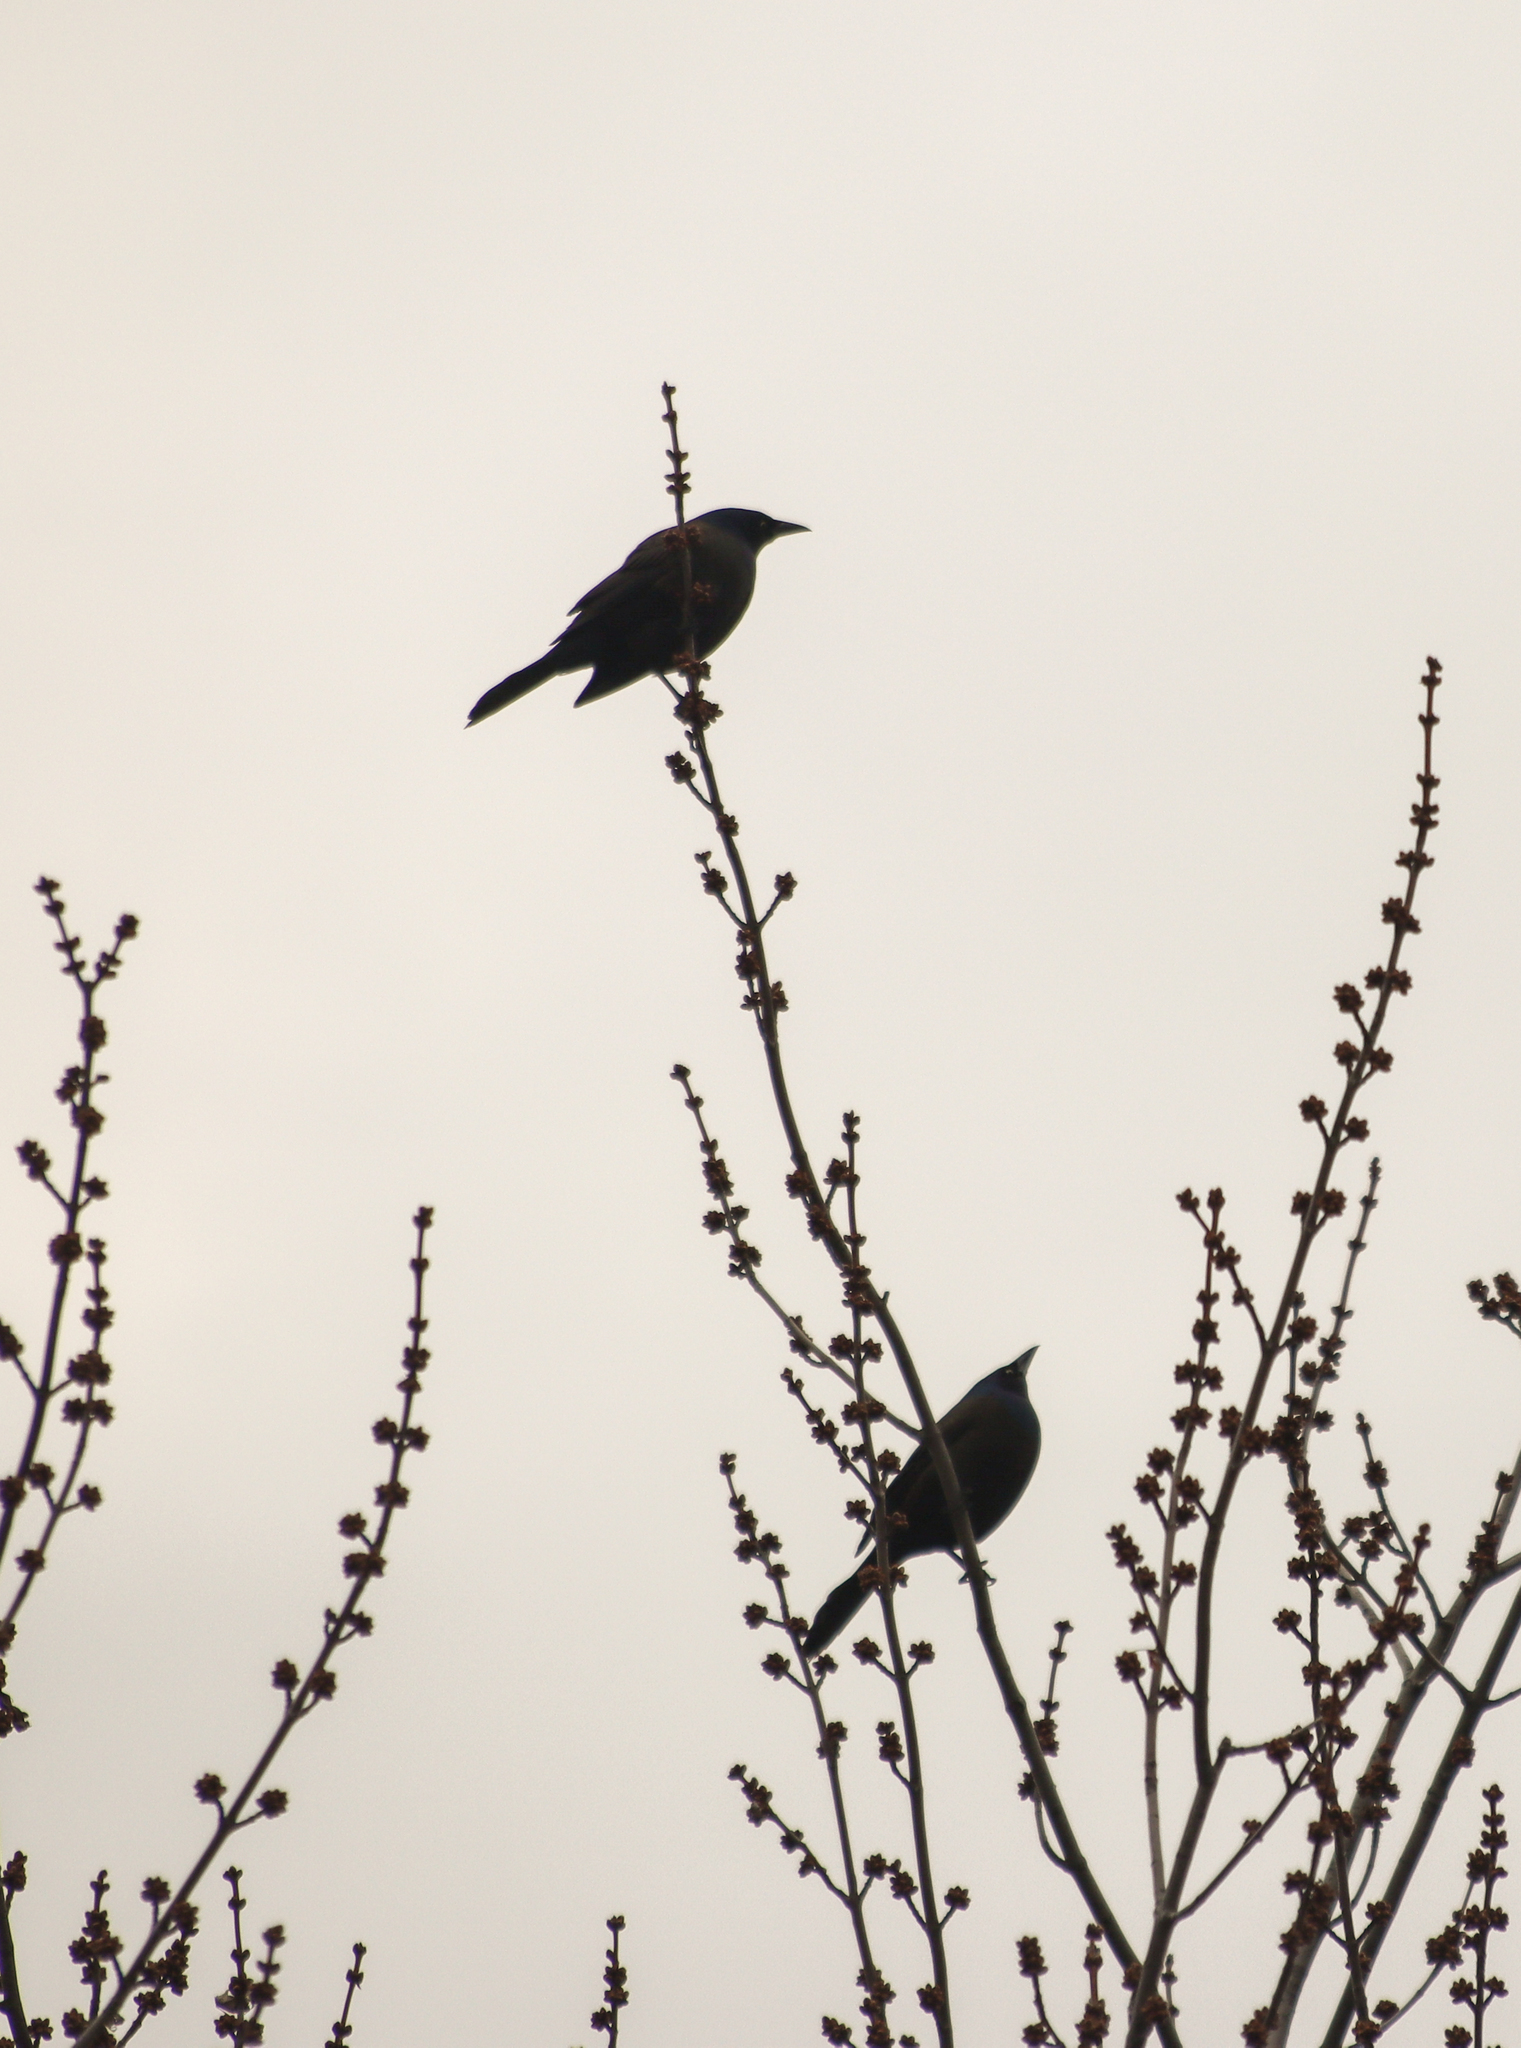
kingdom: Animalia
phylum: Chordata
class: Aves
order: Passeriformes
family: Icteridae
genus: Quiscalus
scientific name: Quiscalus quiscula
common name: Common grackle
